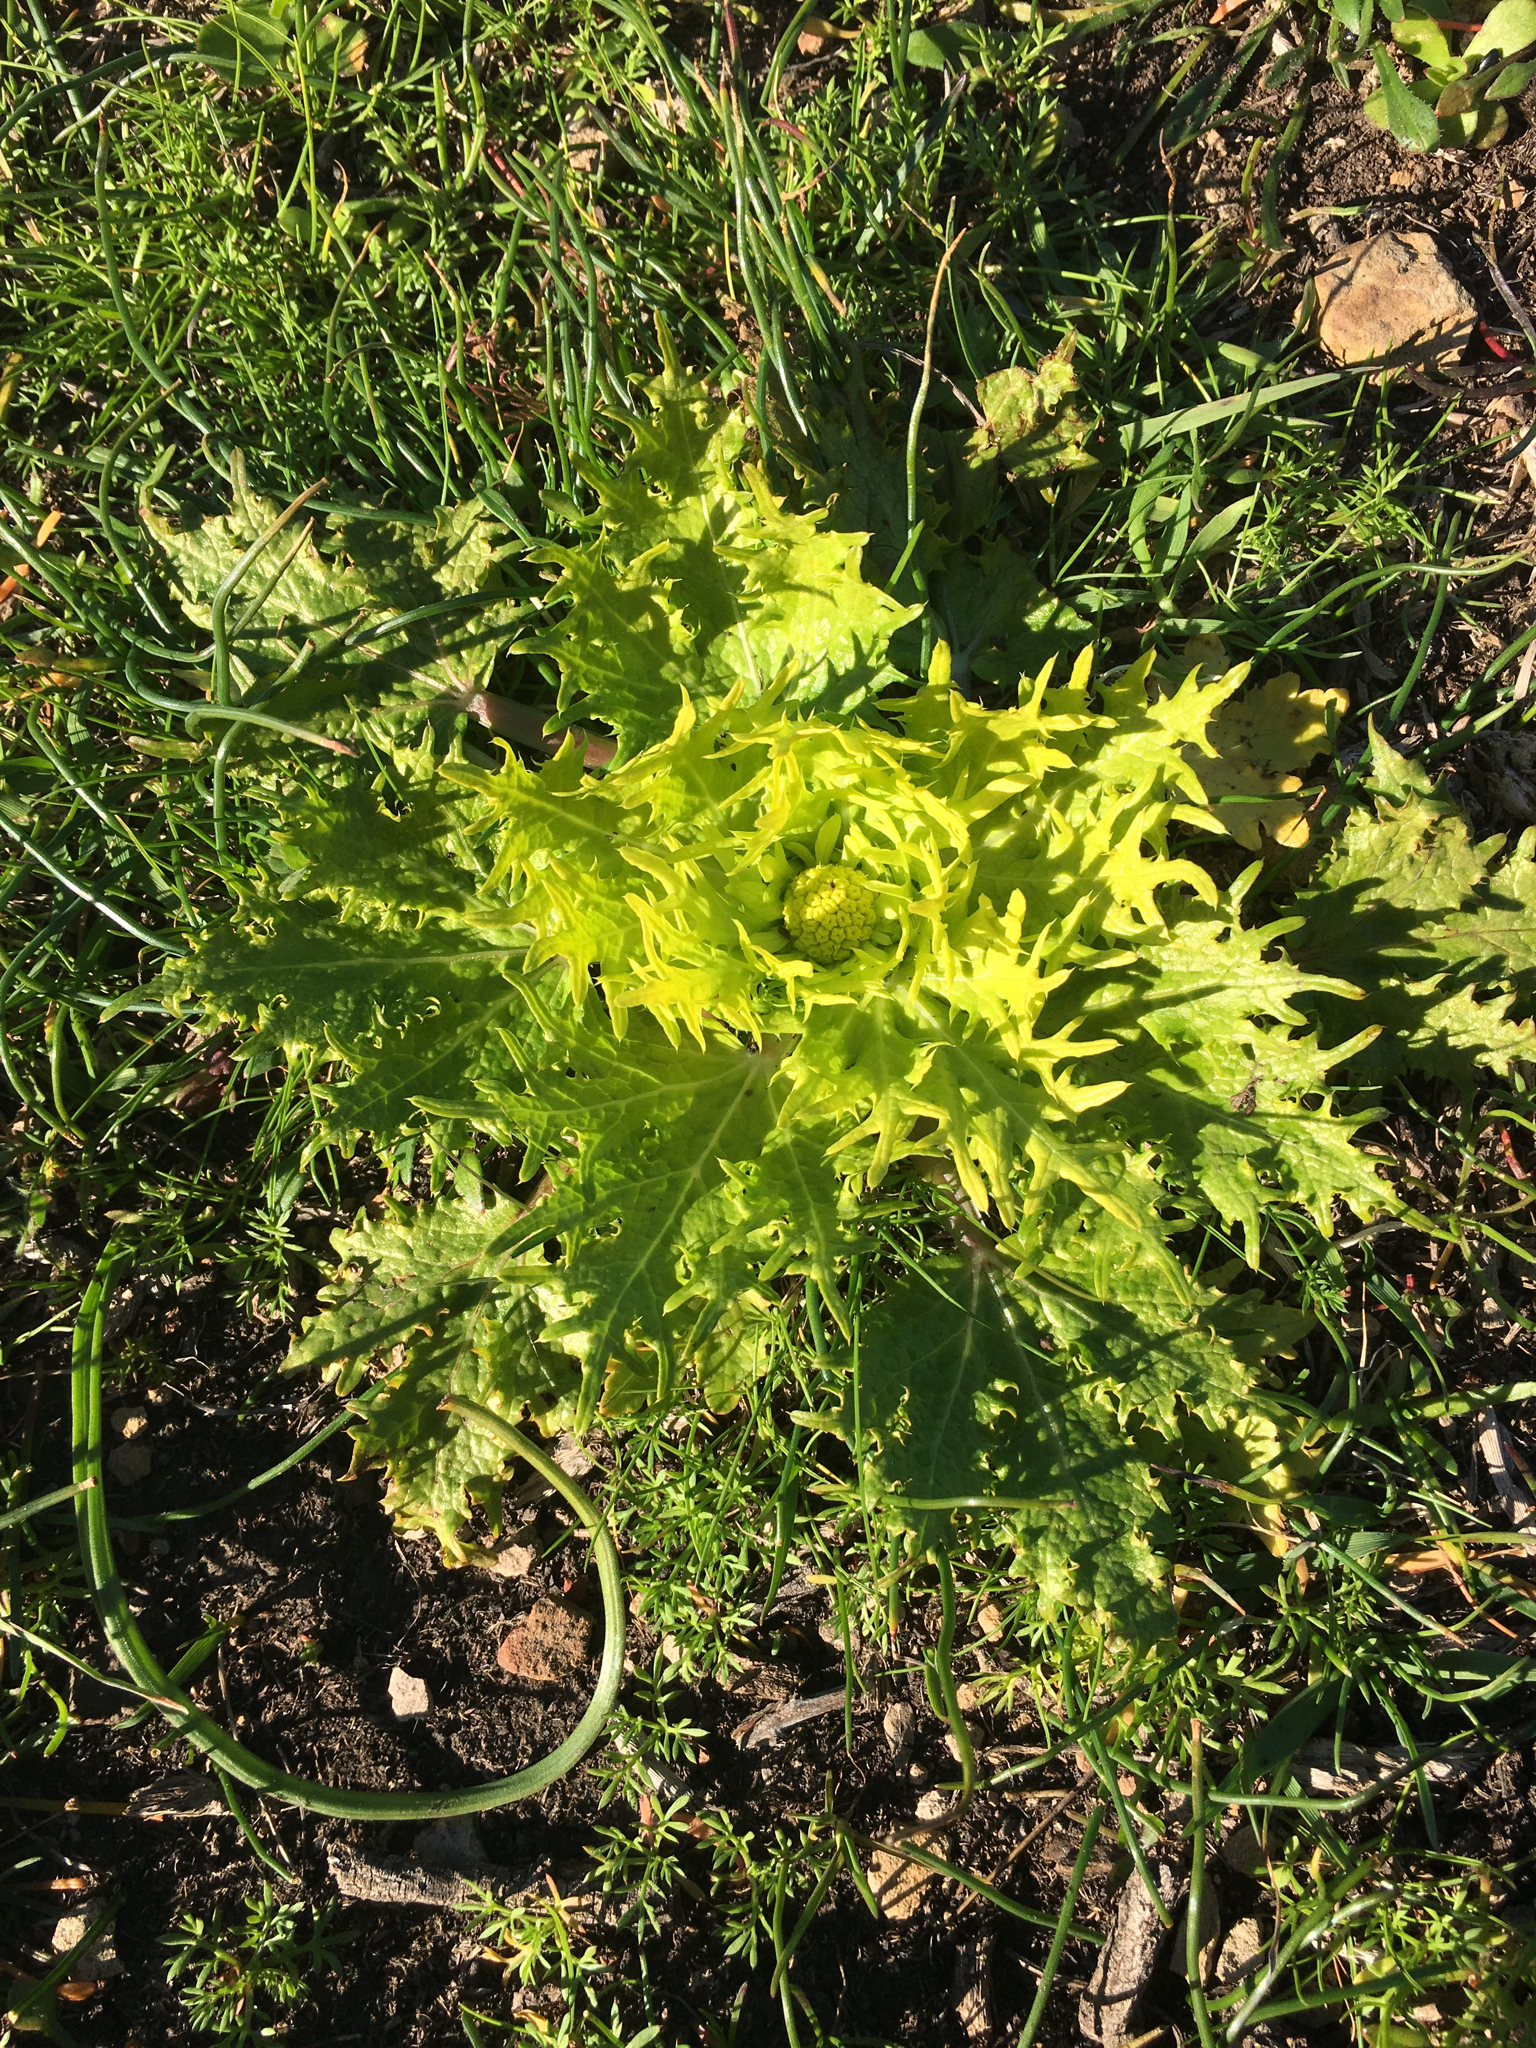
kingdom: Plantae
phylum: Tracheophyta
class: Magnoliopsida
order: Apiales
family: Apiaceae
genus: Sanicula
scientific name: Sanicula arctopoides
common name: Footsteps-of-spring
